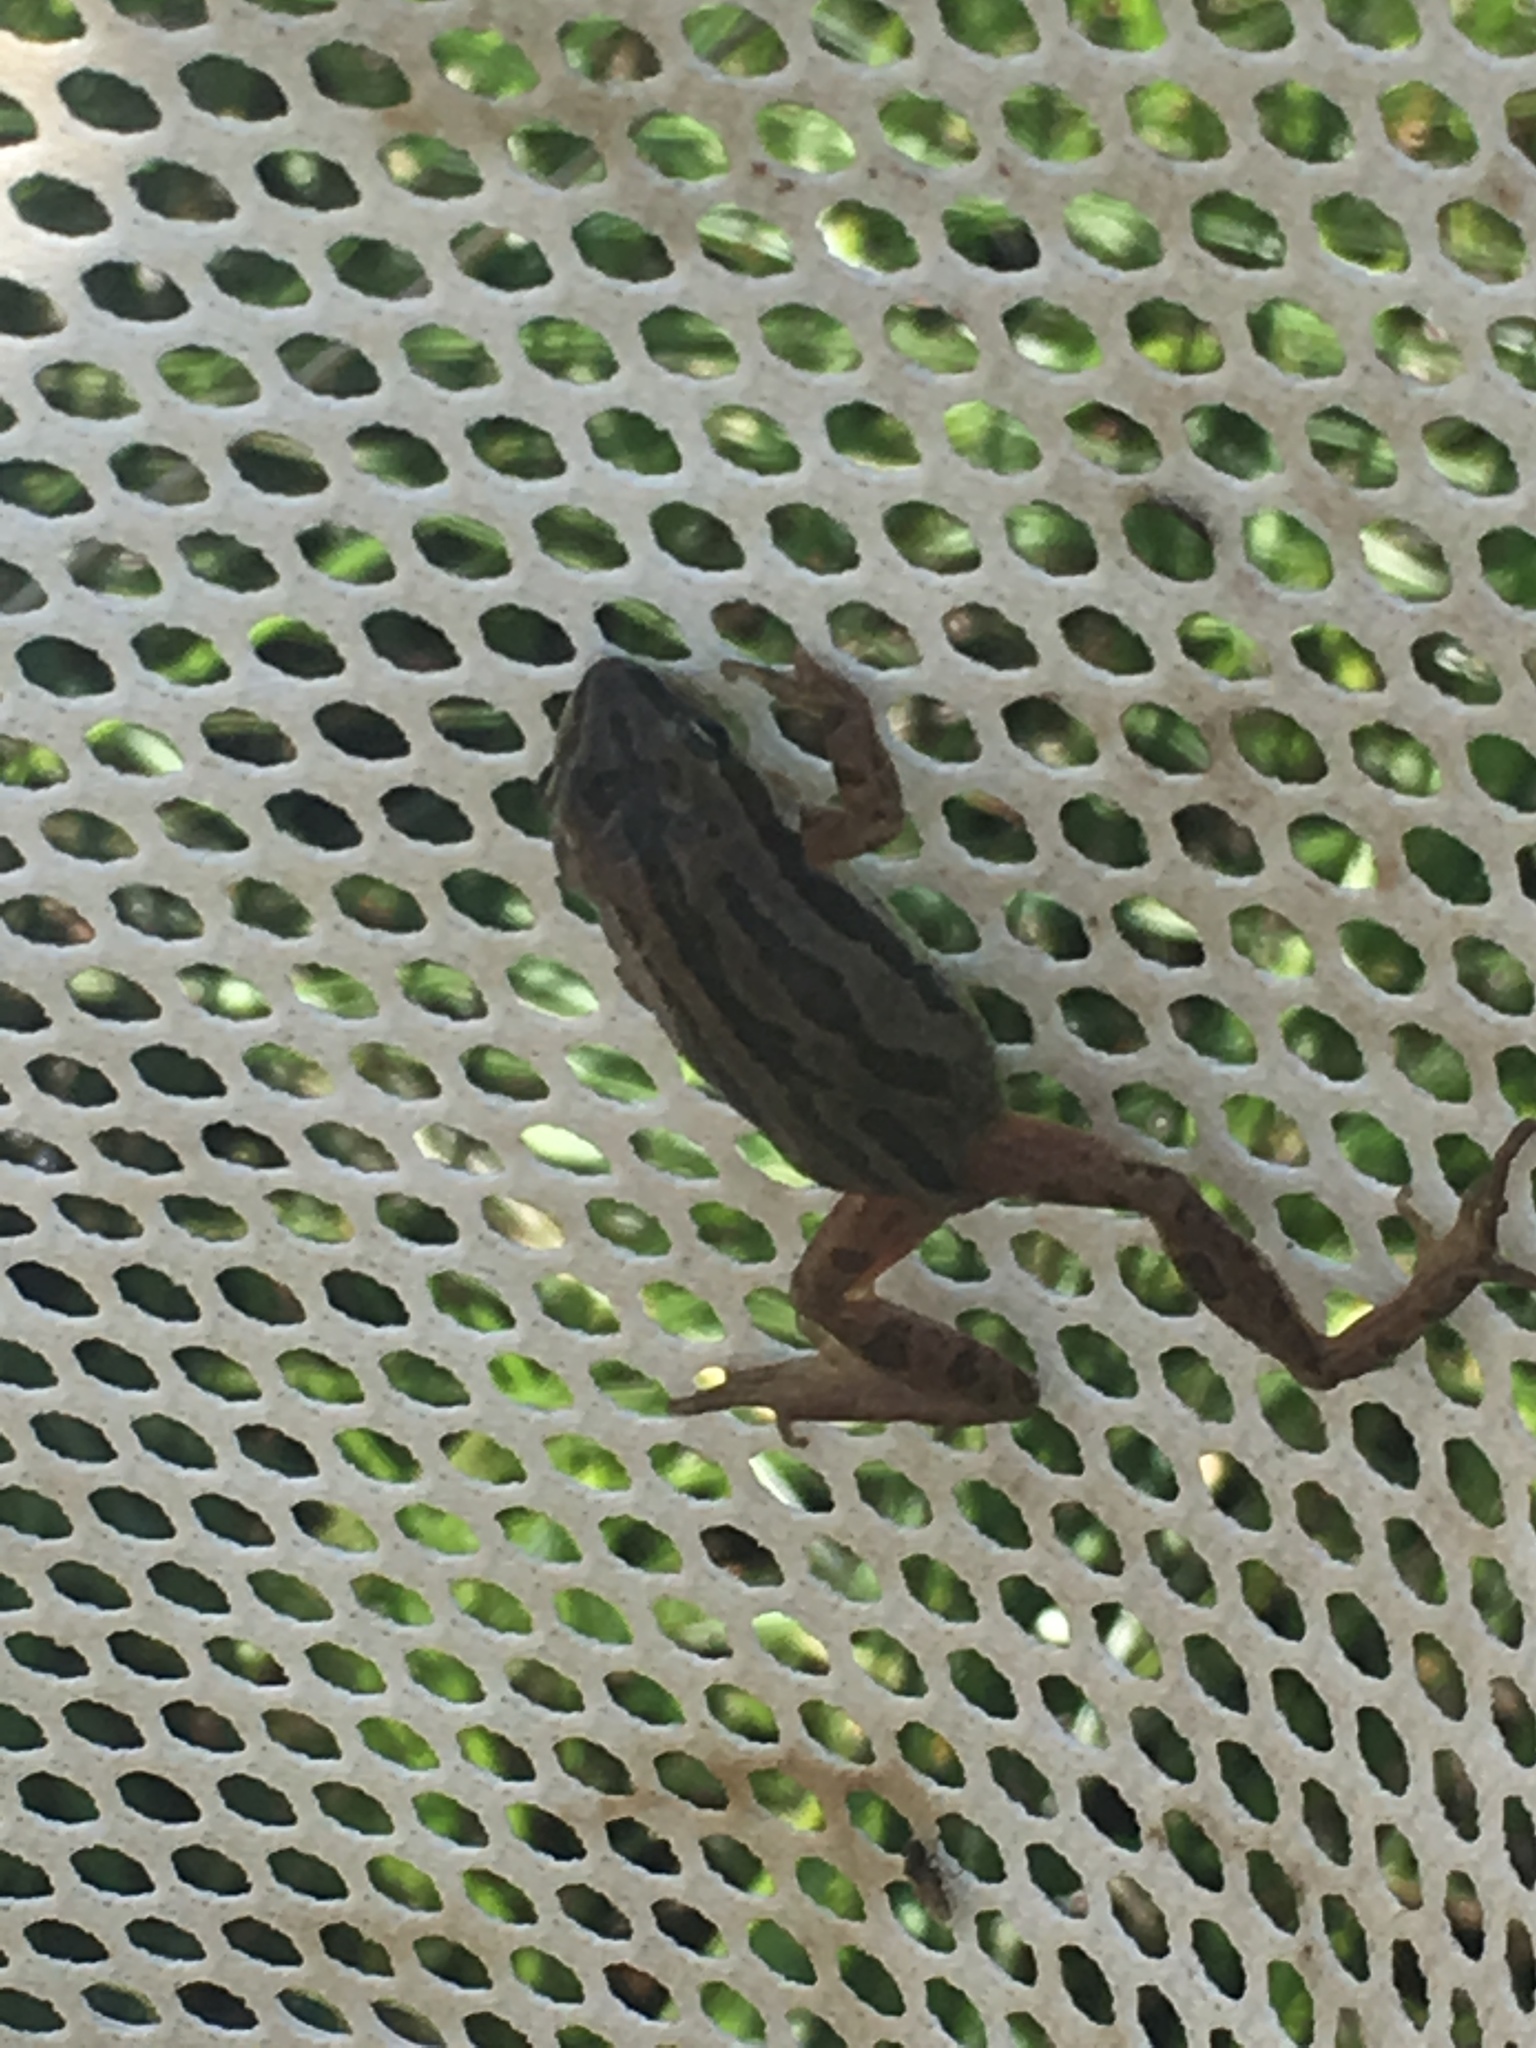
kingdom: Animalia
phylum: Chordata
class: Amphibia
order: Anura
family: Hylidae
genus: Pseudacris
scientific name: Pseudacris maculata
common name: Boreal chorus frog
